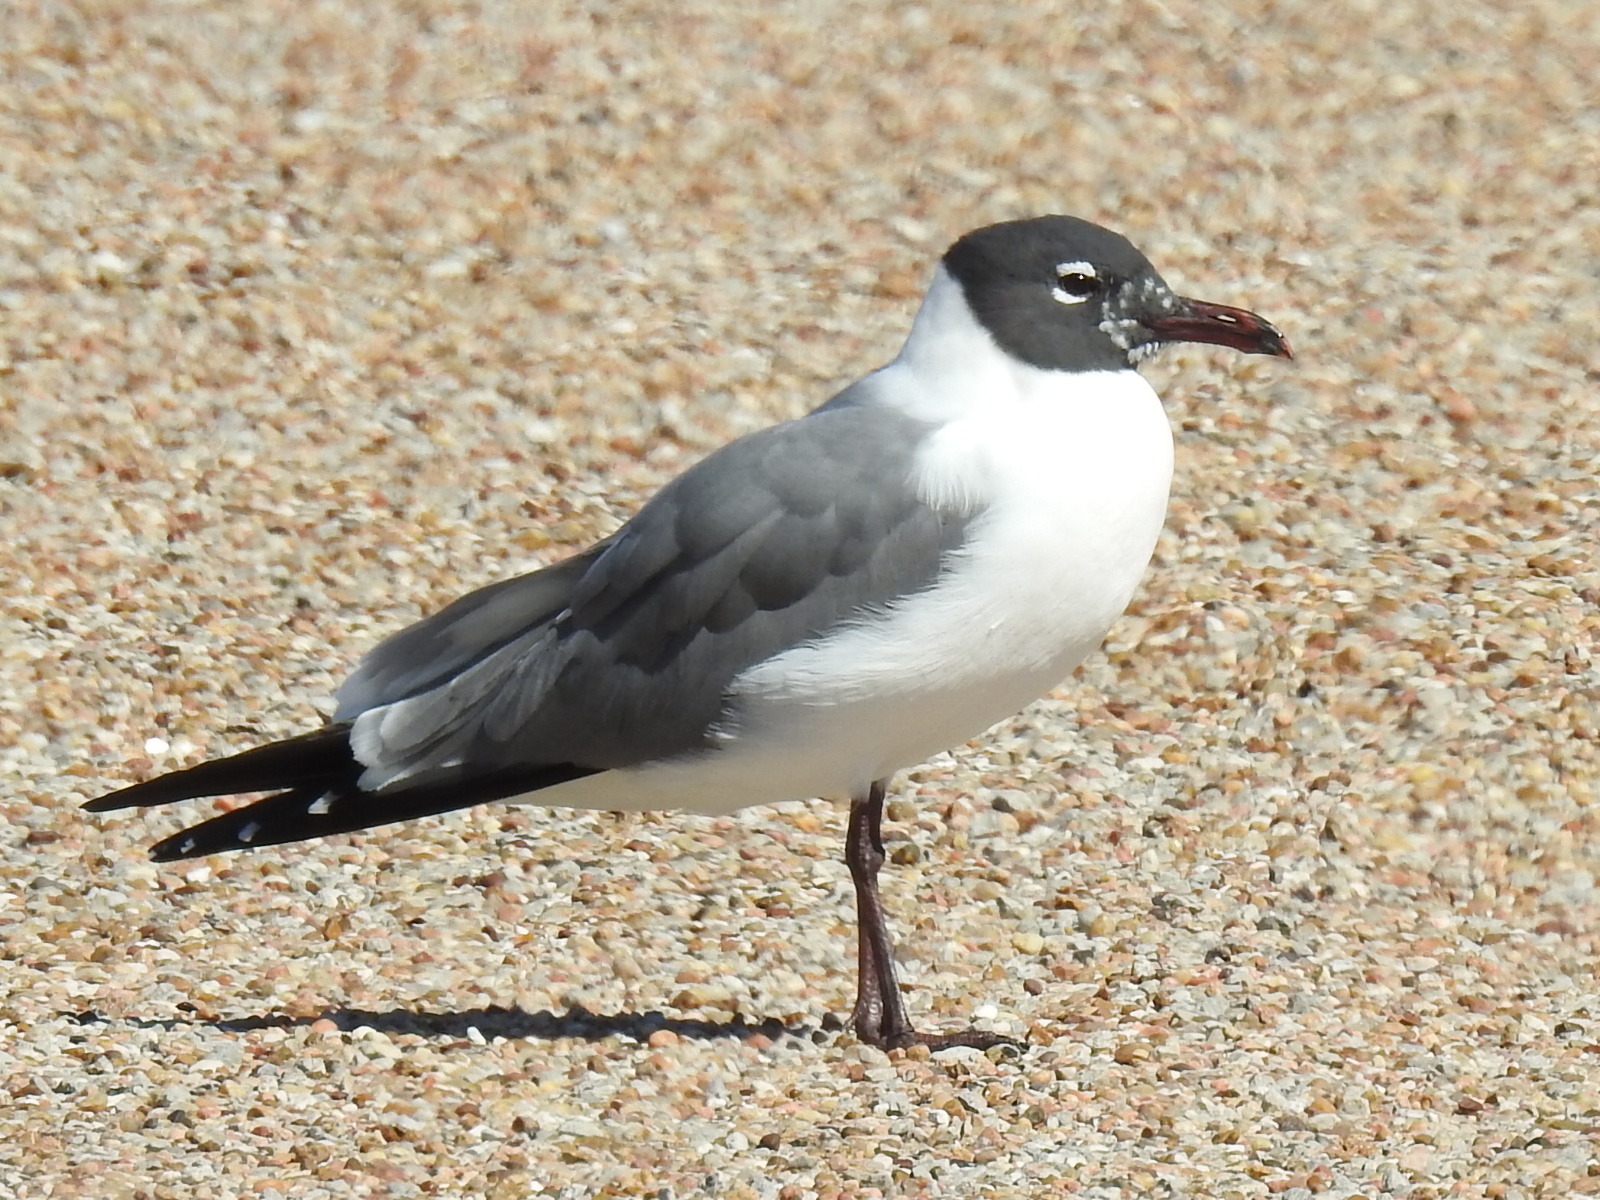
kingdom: Animalia
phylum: Chordata
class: Aves
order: Charadriiformes
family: Laridae
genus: Leucophaeus
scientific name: Leucophaeus atricilla
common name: Laughing gull
